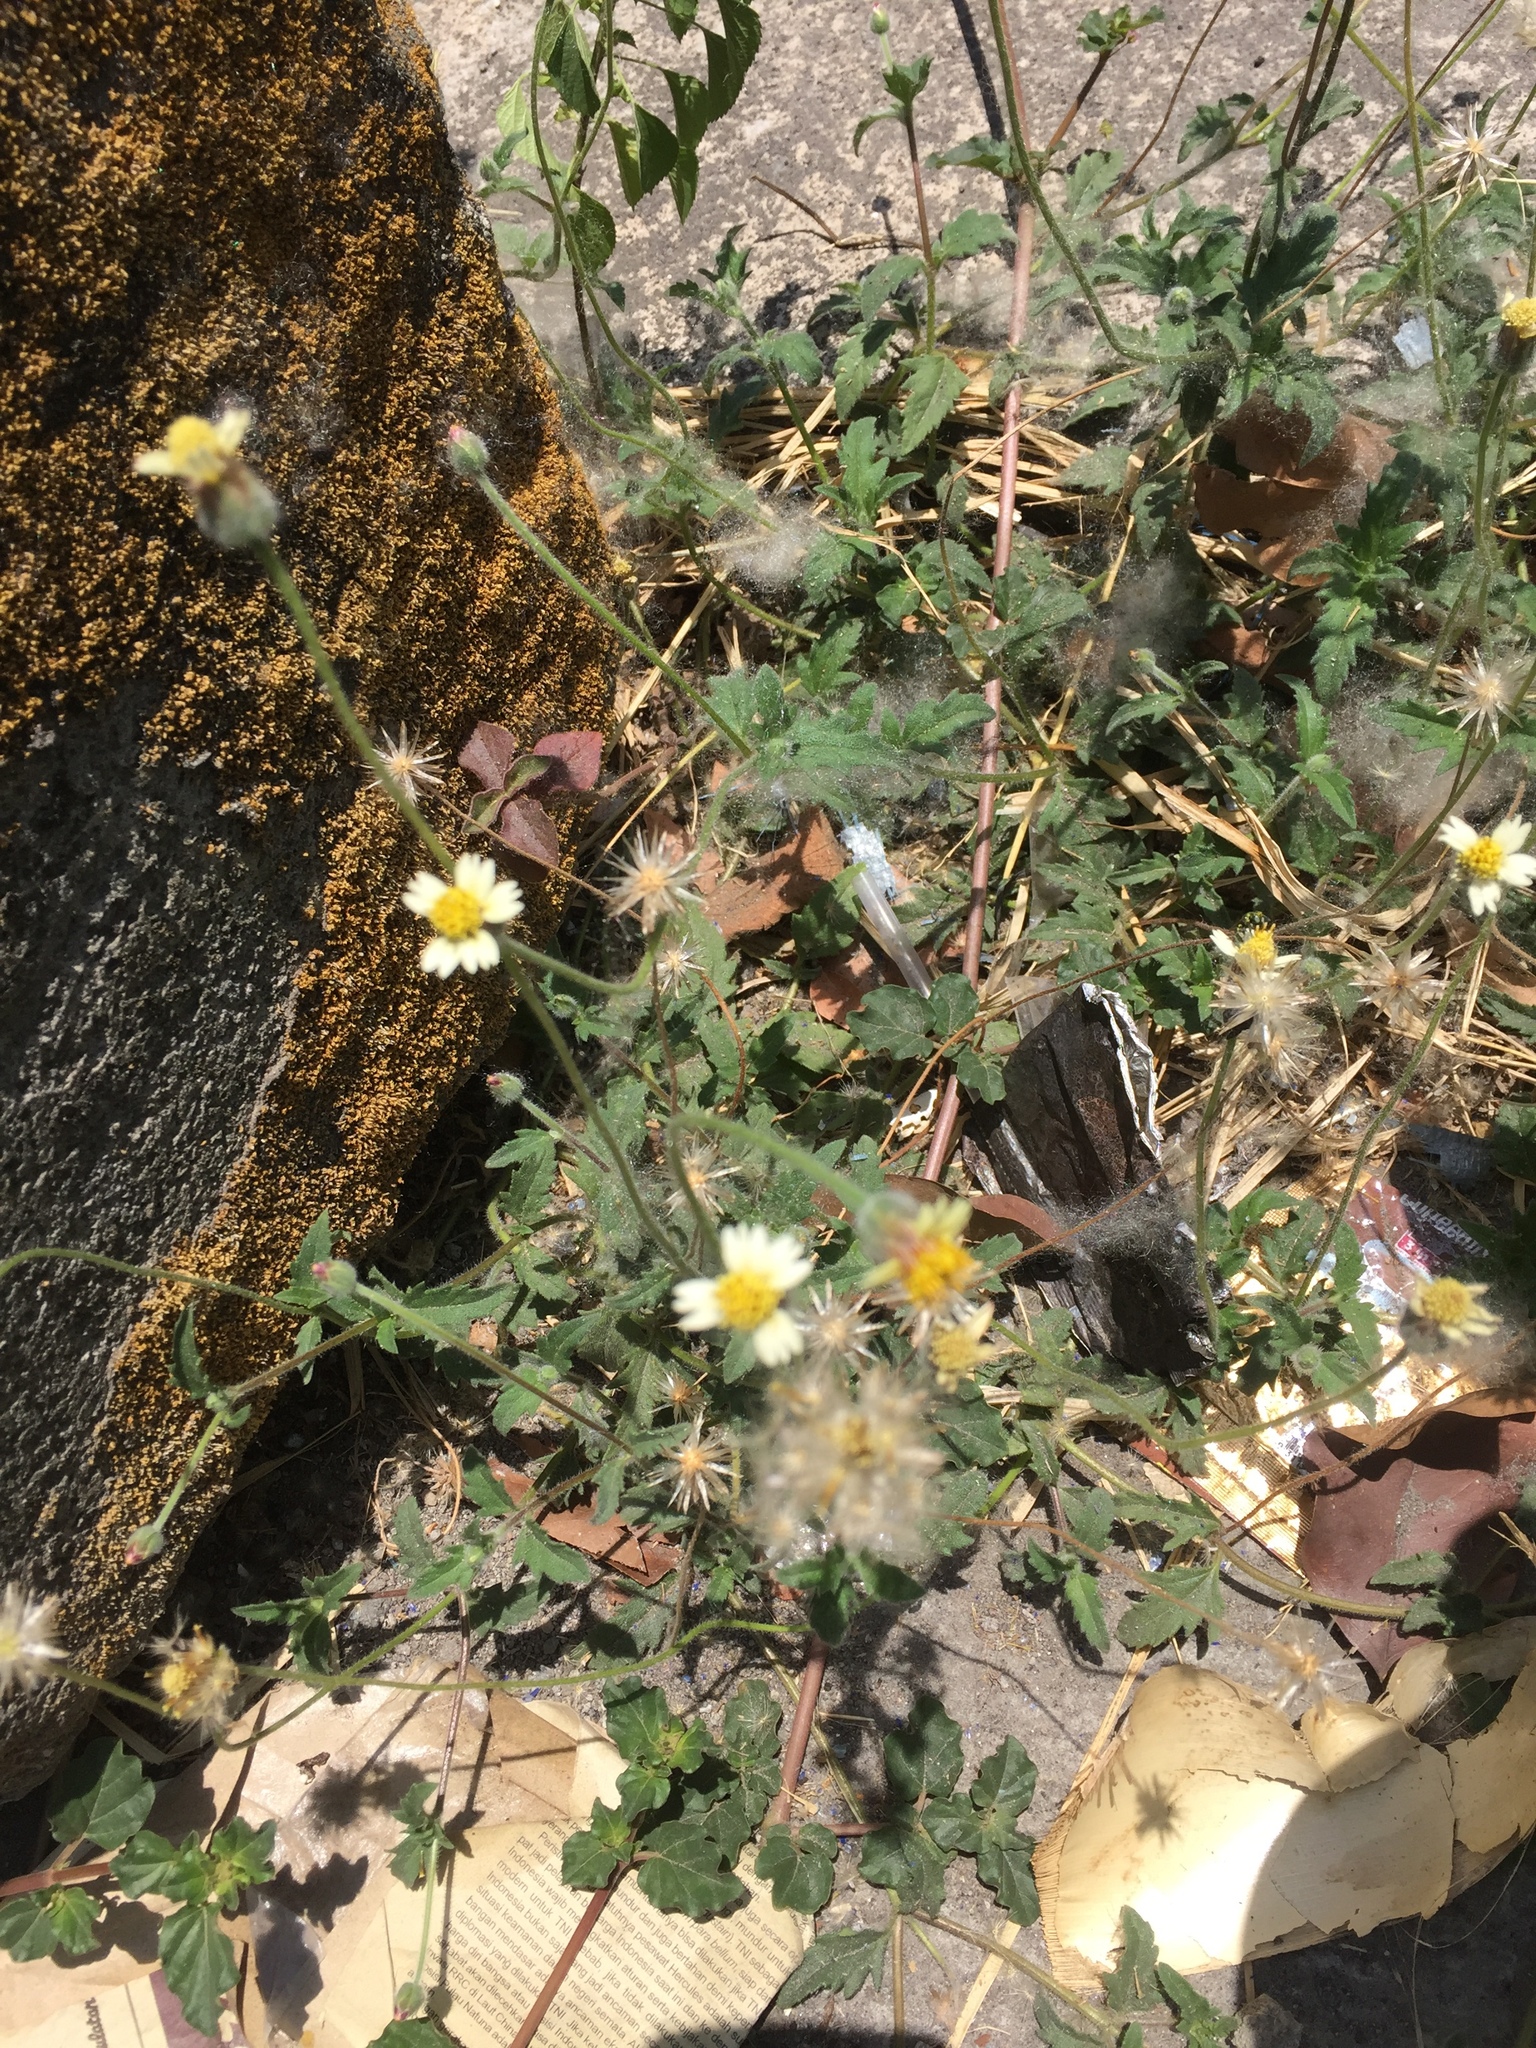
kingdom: Plantae
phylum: Tracheophyta
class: Magnoliopsida
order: Asterales
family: Asteraceae
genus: Tridax
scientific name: Tridax procumbens
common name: Coatbuttons
